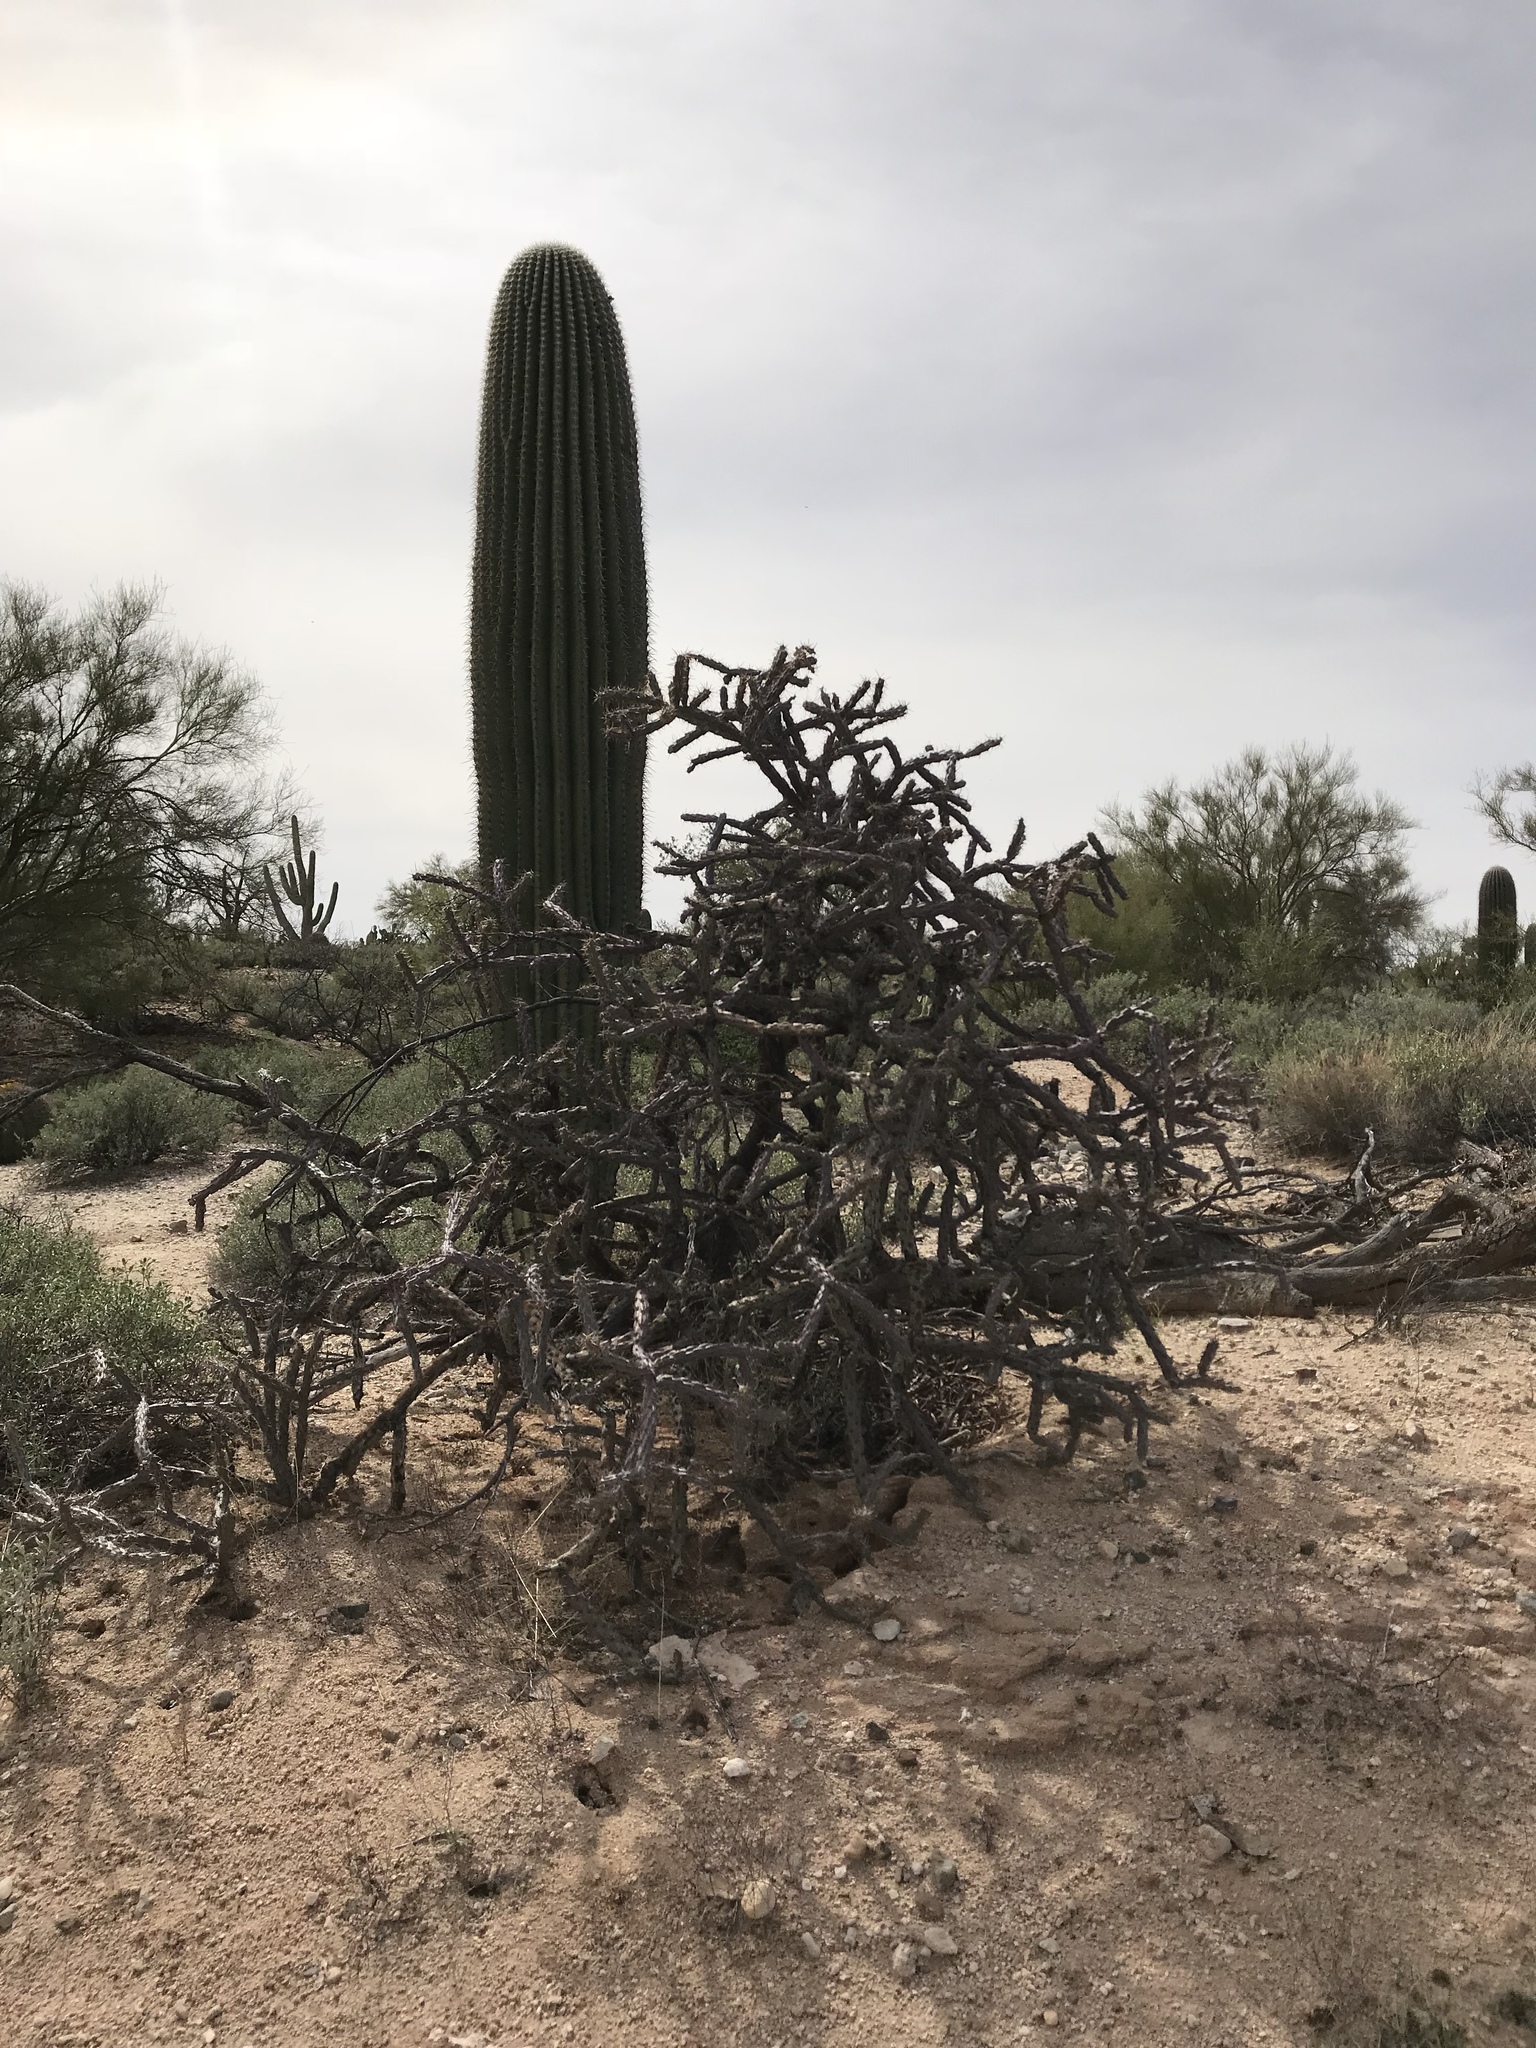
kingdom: Plantae
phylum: Tracheophyta
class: Magnoliopsida
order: Caryophyllales
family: Cactaceae
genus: Cylindropuntia
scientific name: Cylindropuntia thurberi
